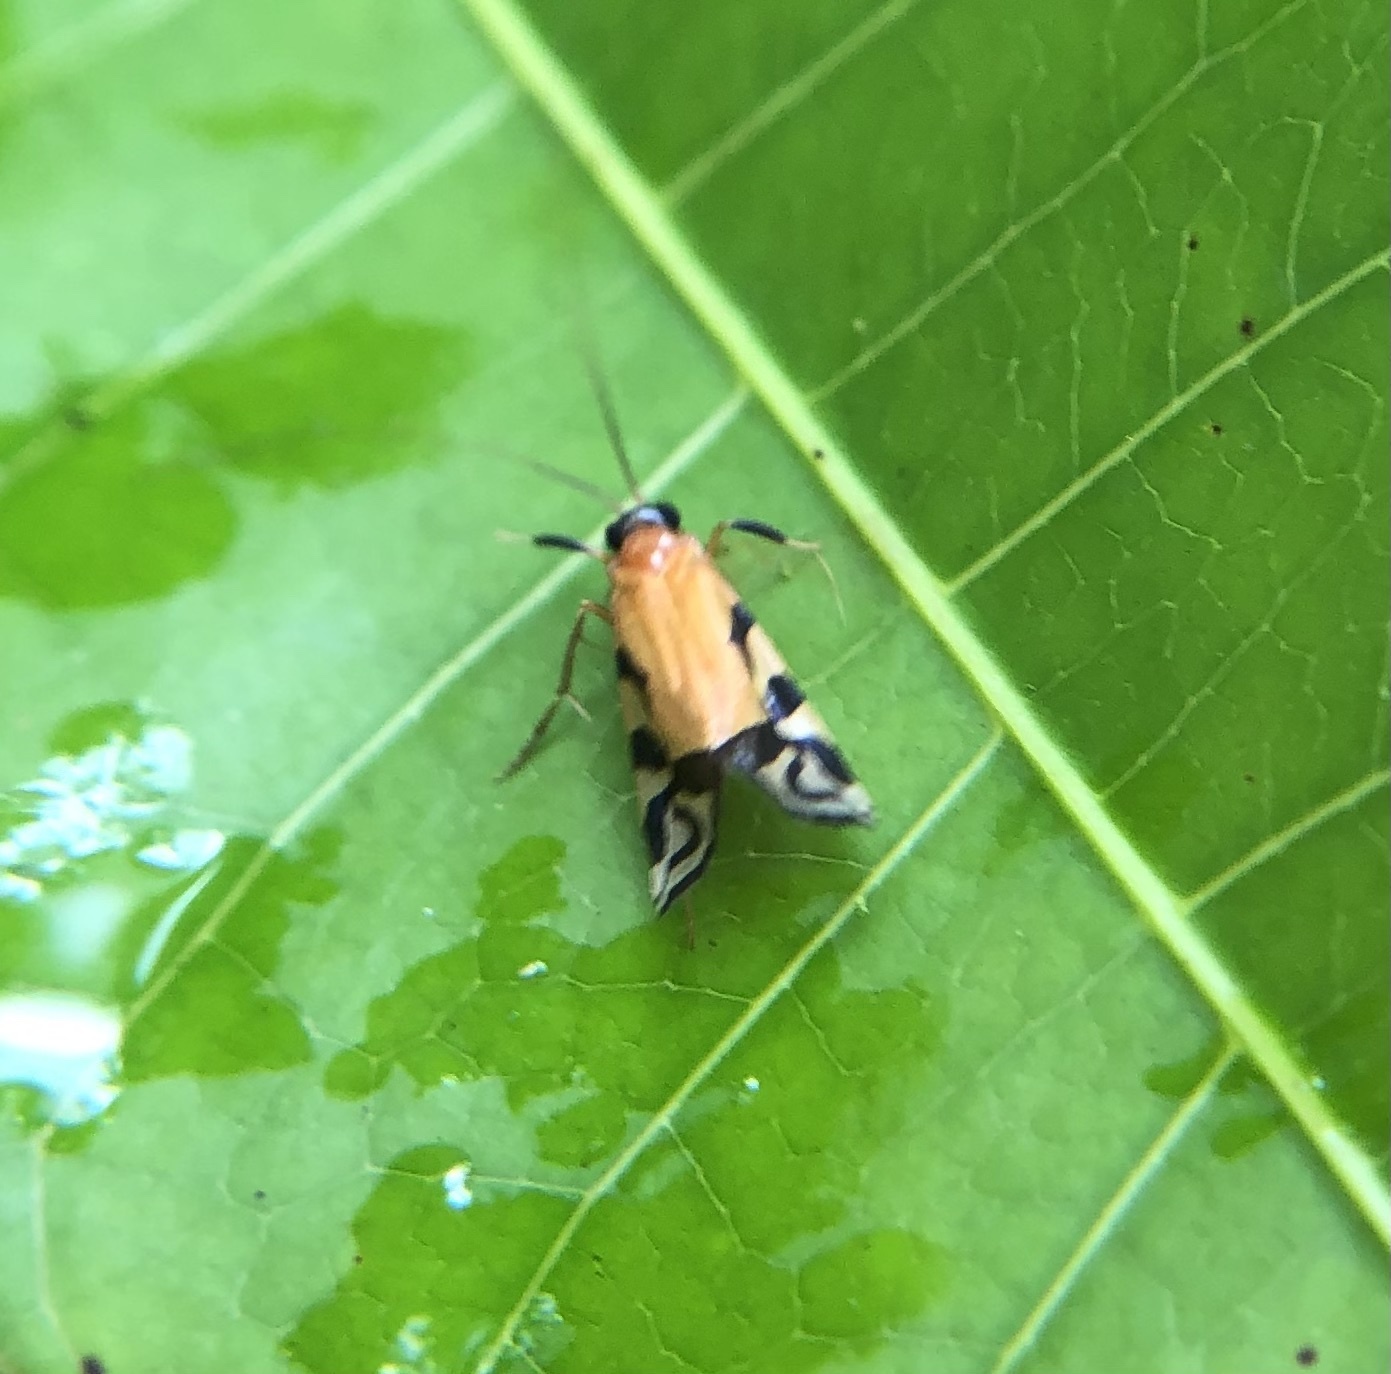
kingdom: Animalia
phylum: Arthropoda
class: Insecta
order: Trichoptera
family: Hydropsychidae
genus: Macrostemum
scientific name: Macrostemum negrense
